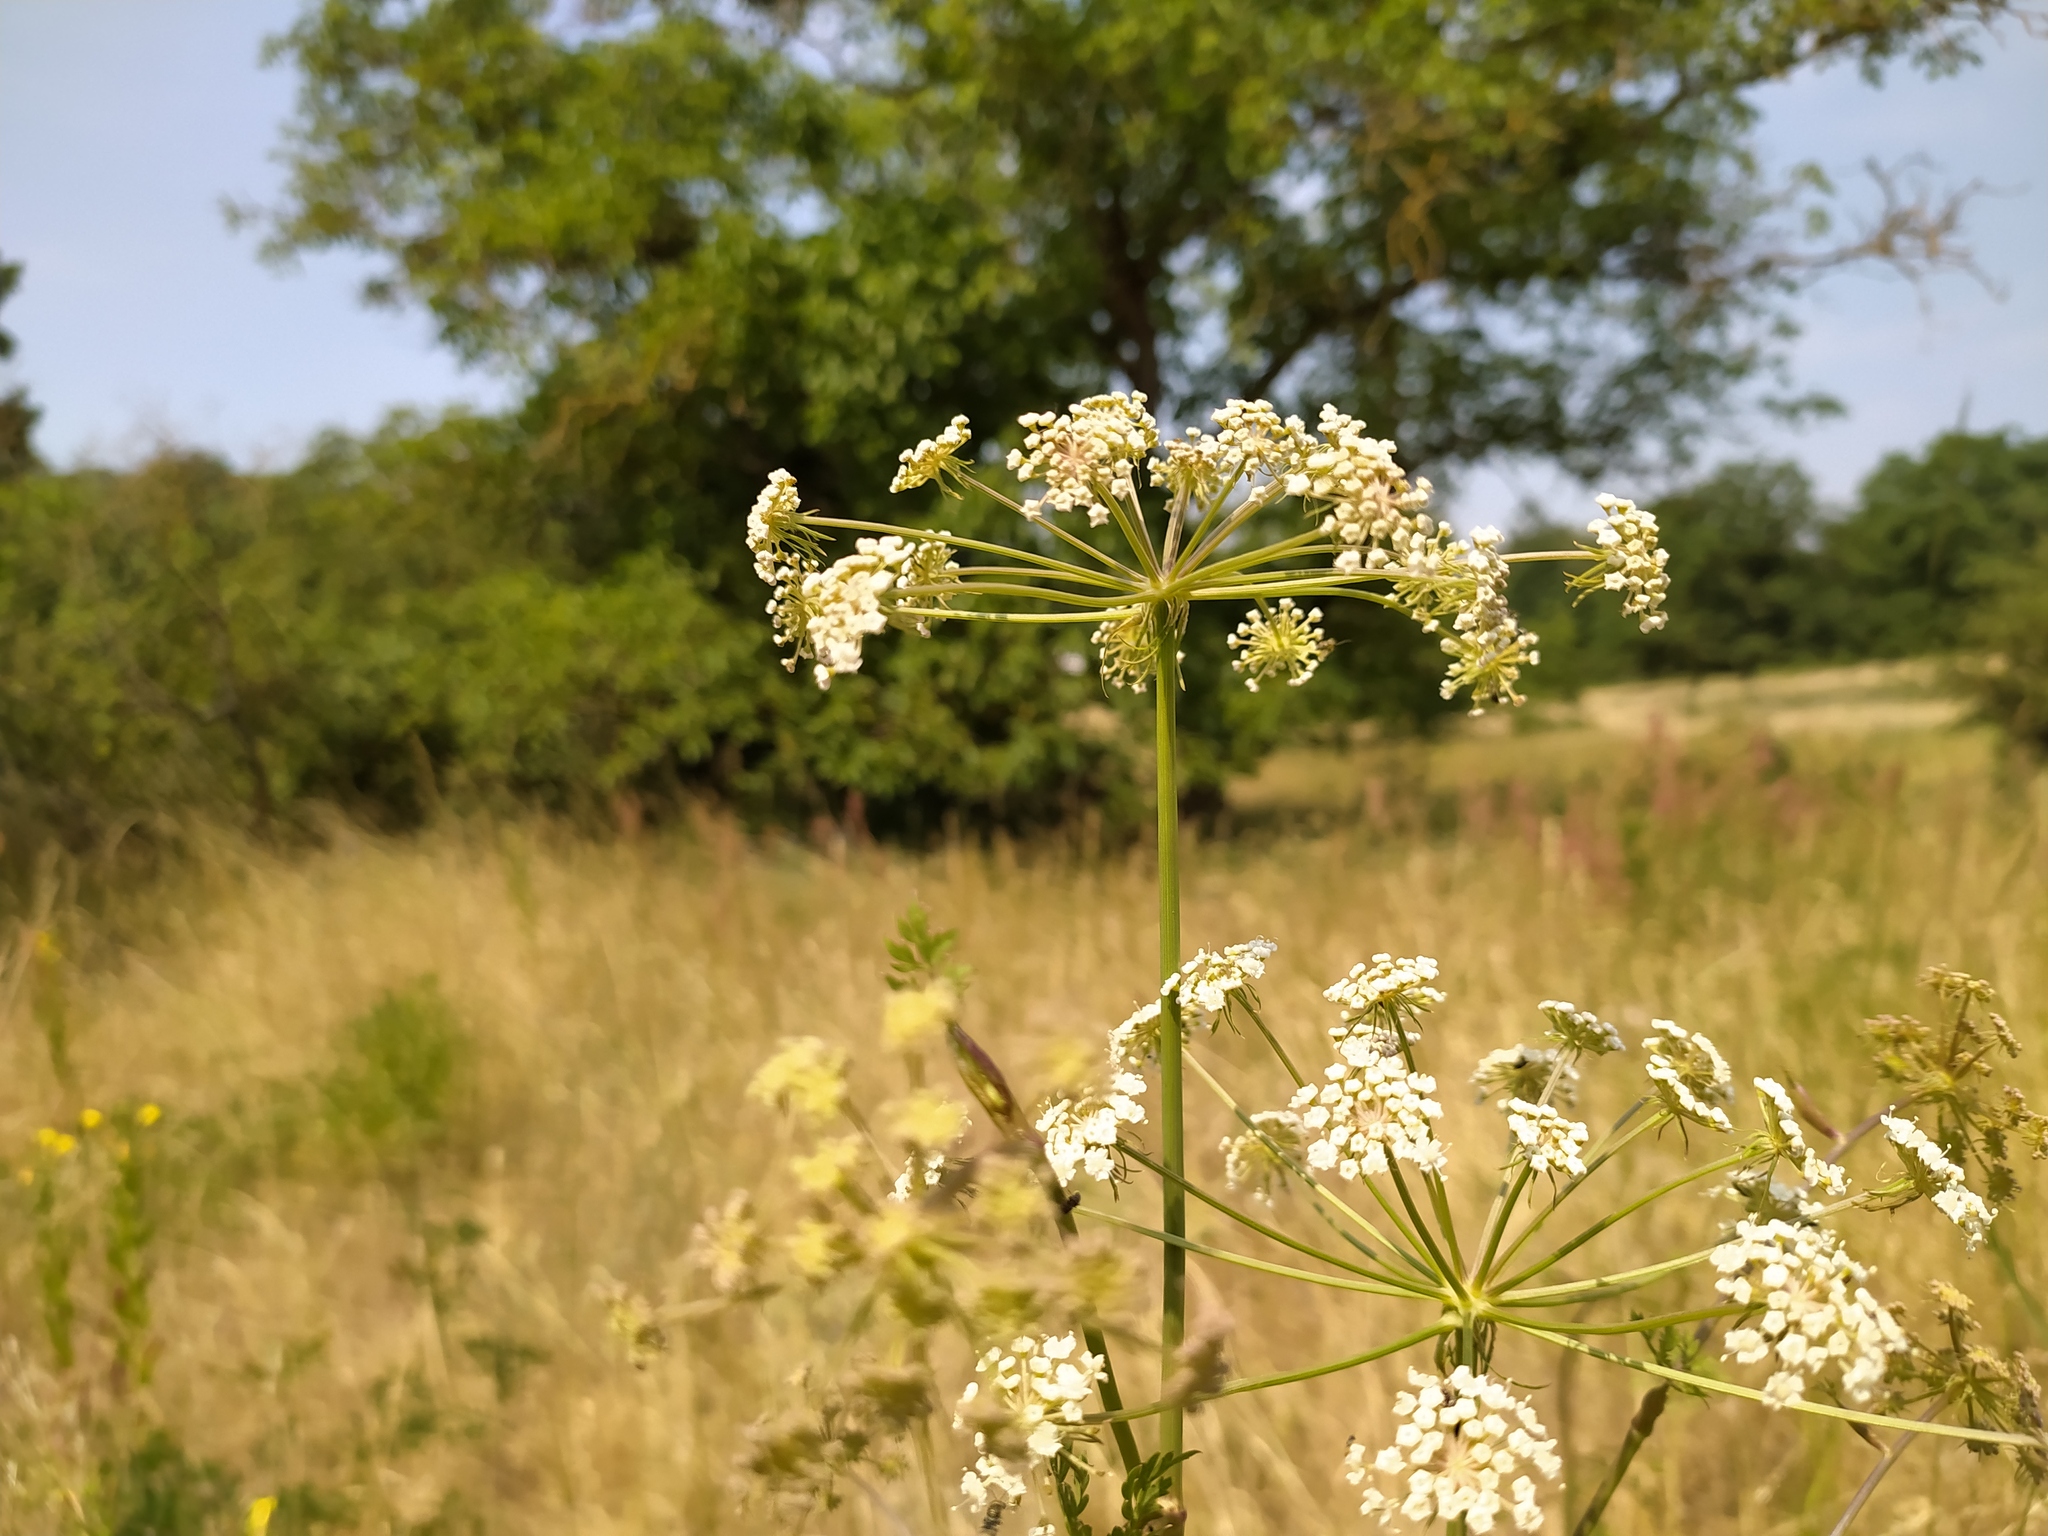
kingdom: Plantae
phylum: Tracheophyta
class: Magnoliopsida
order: Apiales
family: Apiaceae
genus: Oreoselinum
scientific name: Oreoselinum nigrum
